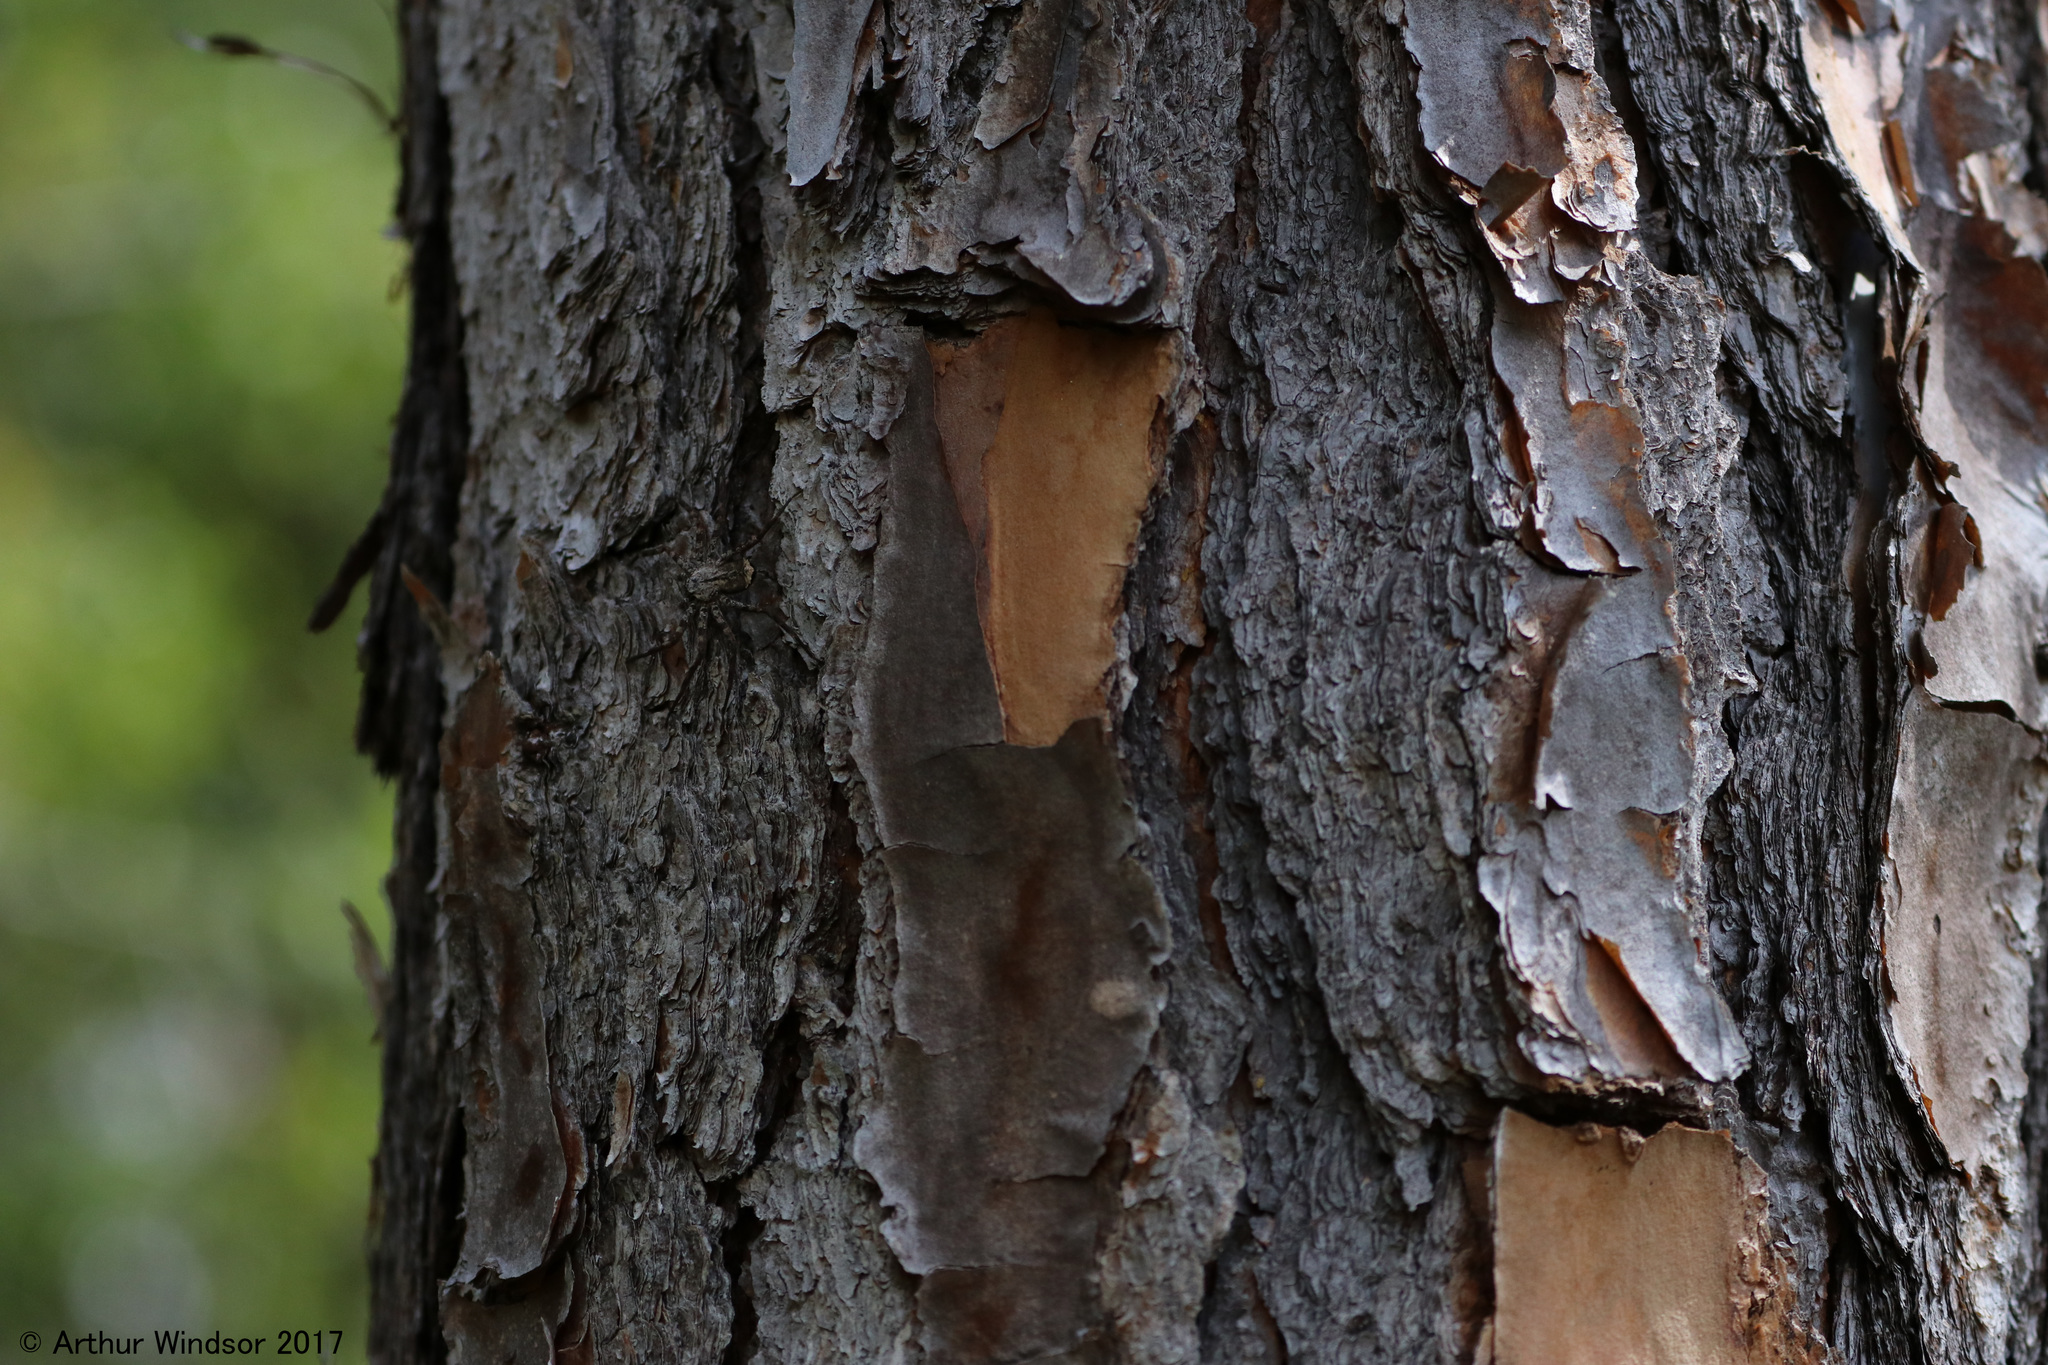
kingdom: Animalia
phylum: Arthropoda
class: Arachnida
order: Araneae
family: Selenopidae
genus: Selenops
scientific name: Selenops submaculosus
